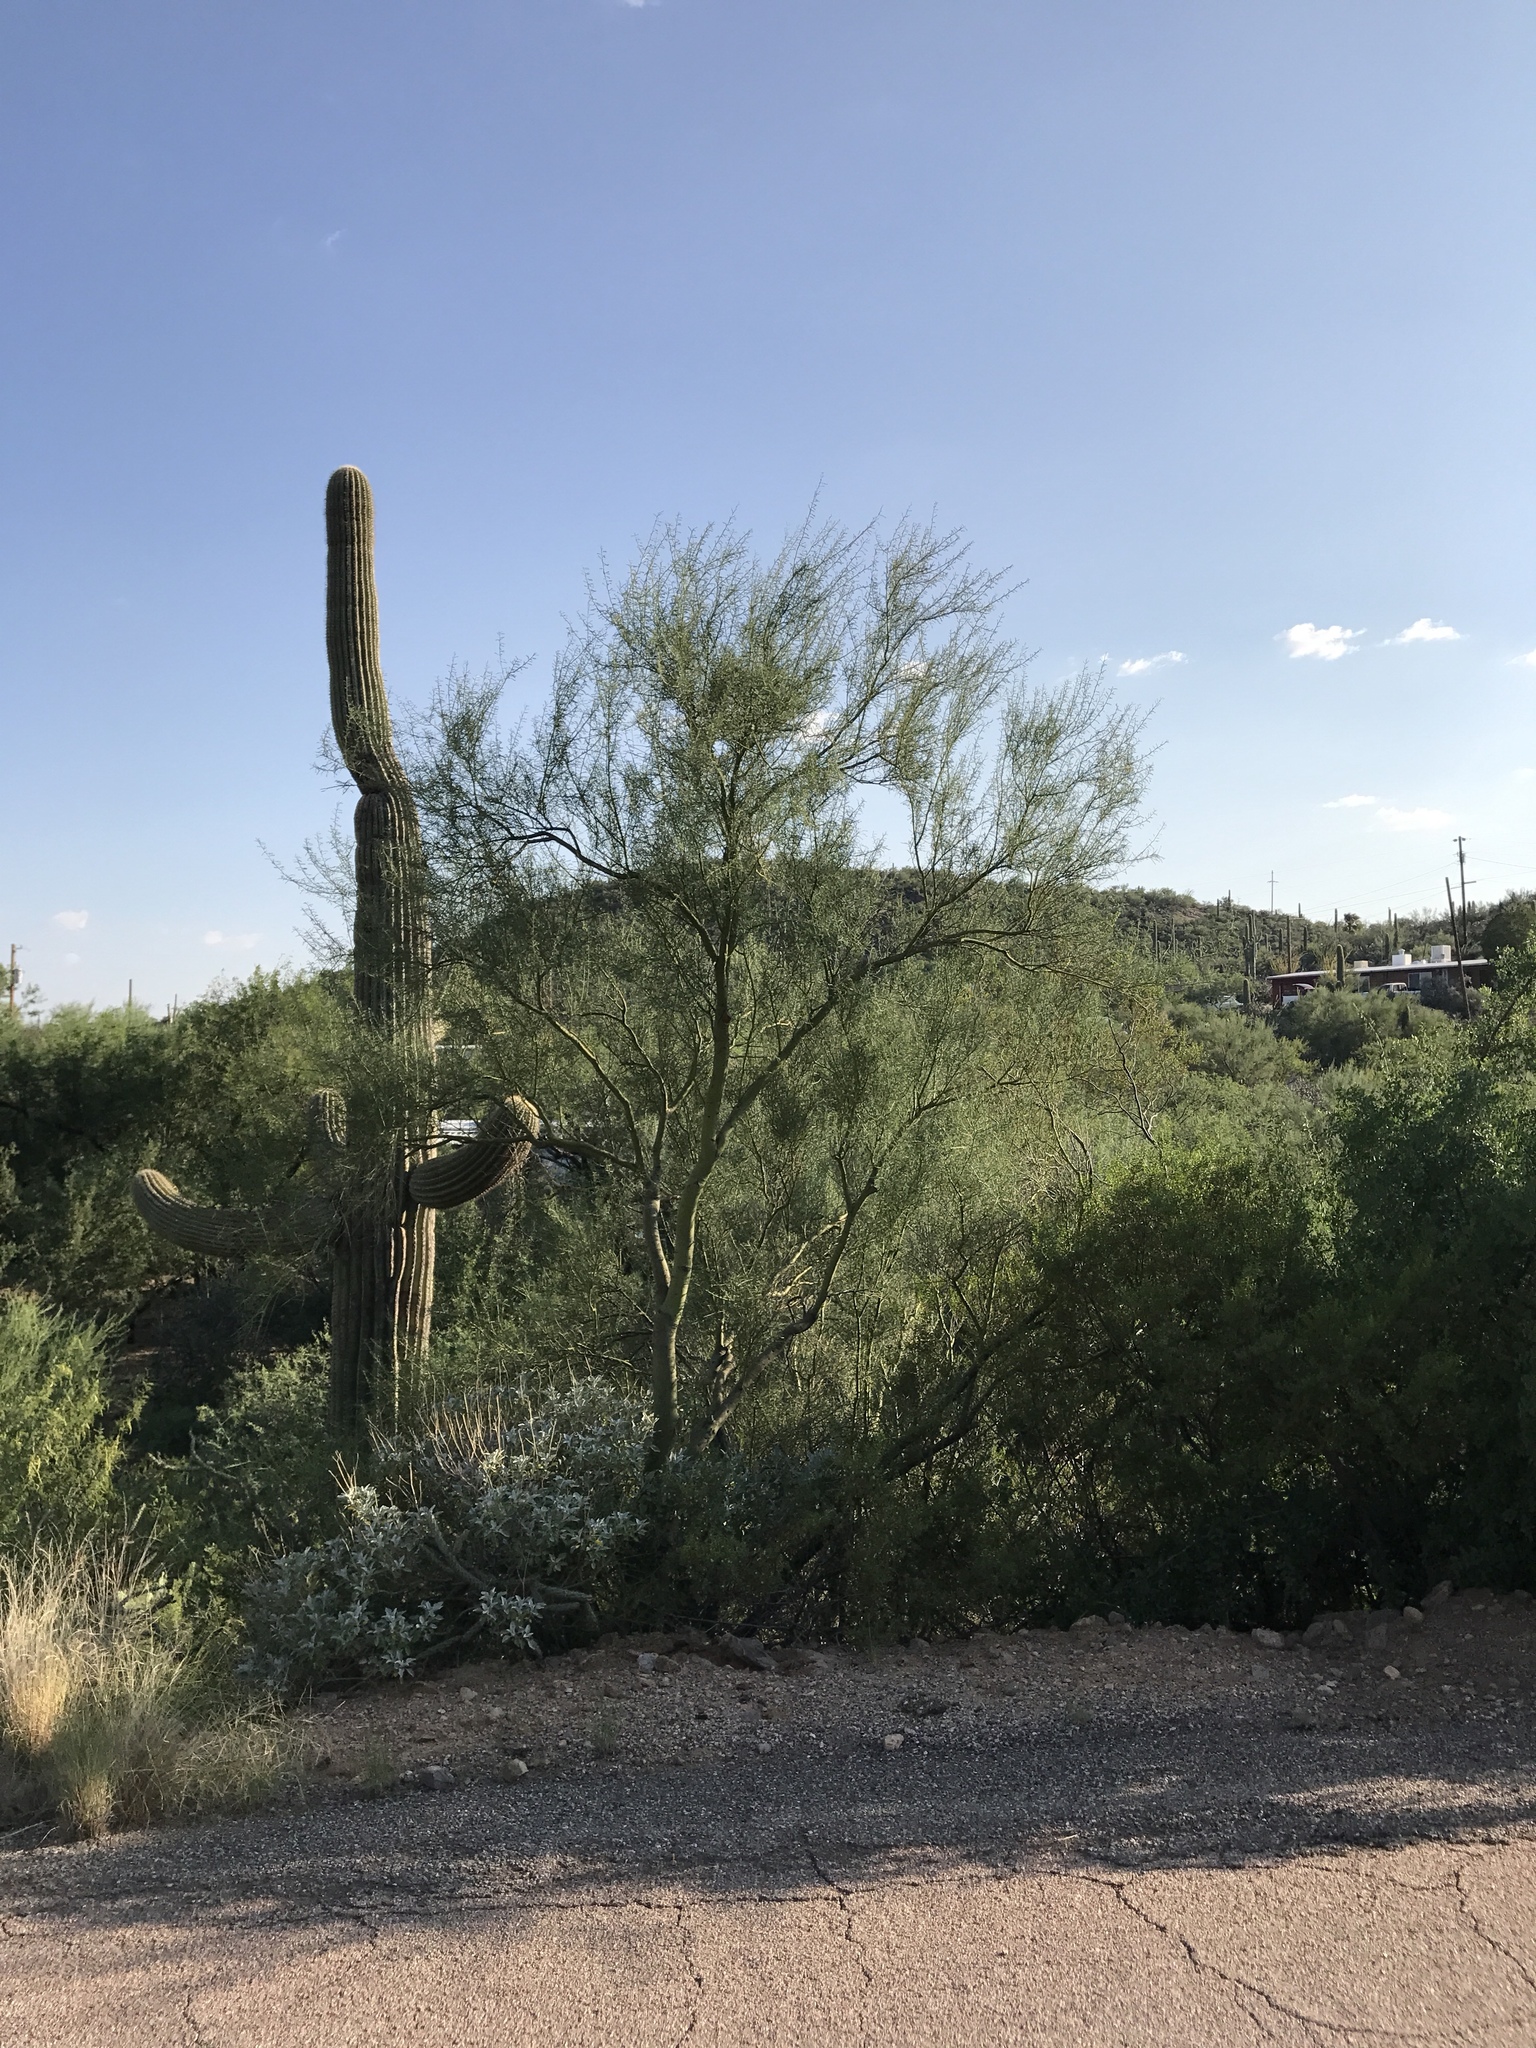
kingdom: Plantae
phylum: Tracheophyta
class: Magnoliopsida
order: Fabales
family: Fabaceae
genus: Parkinsonia
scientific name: Parkinsonia microphylla
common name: Yellow paloverde
